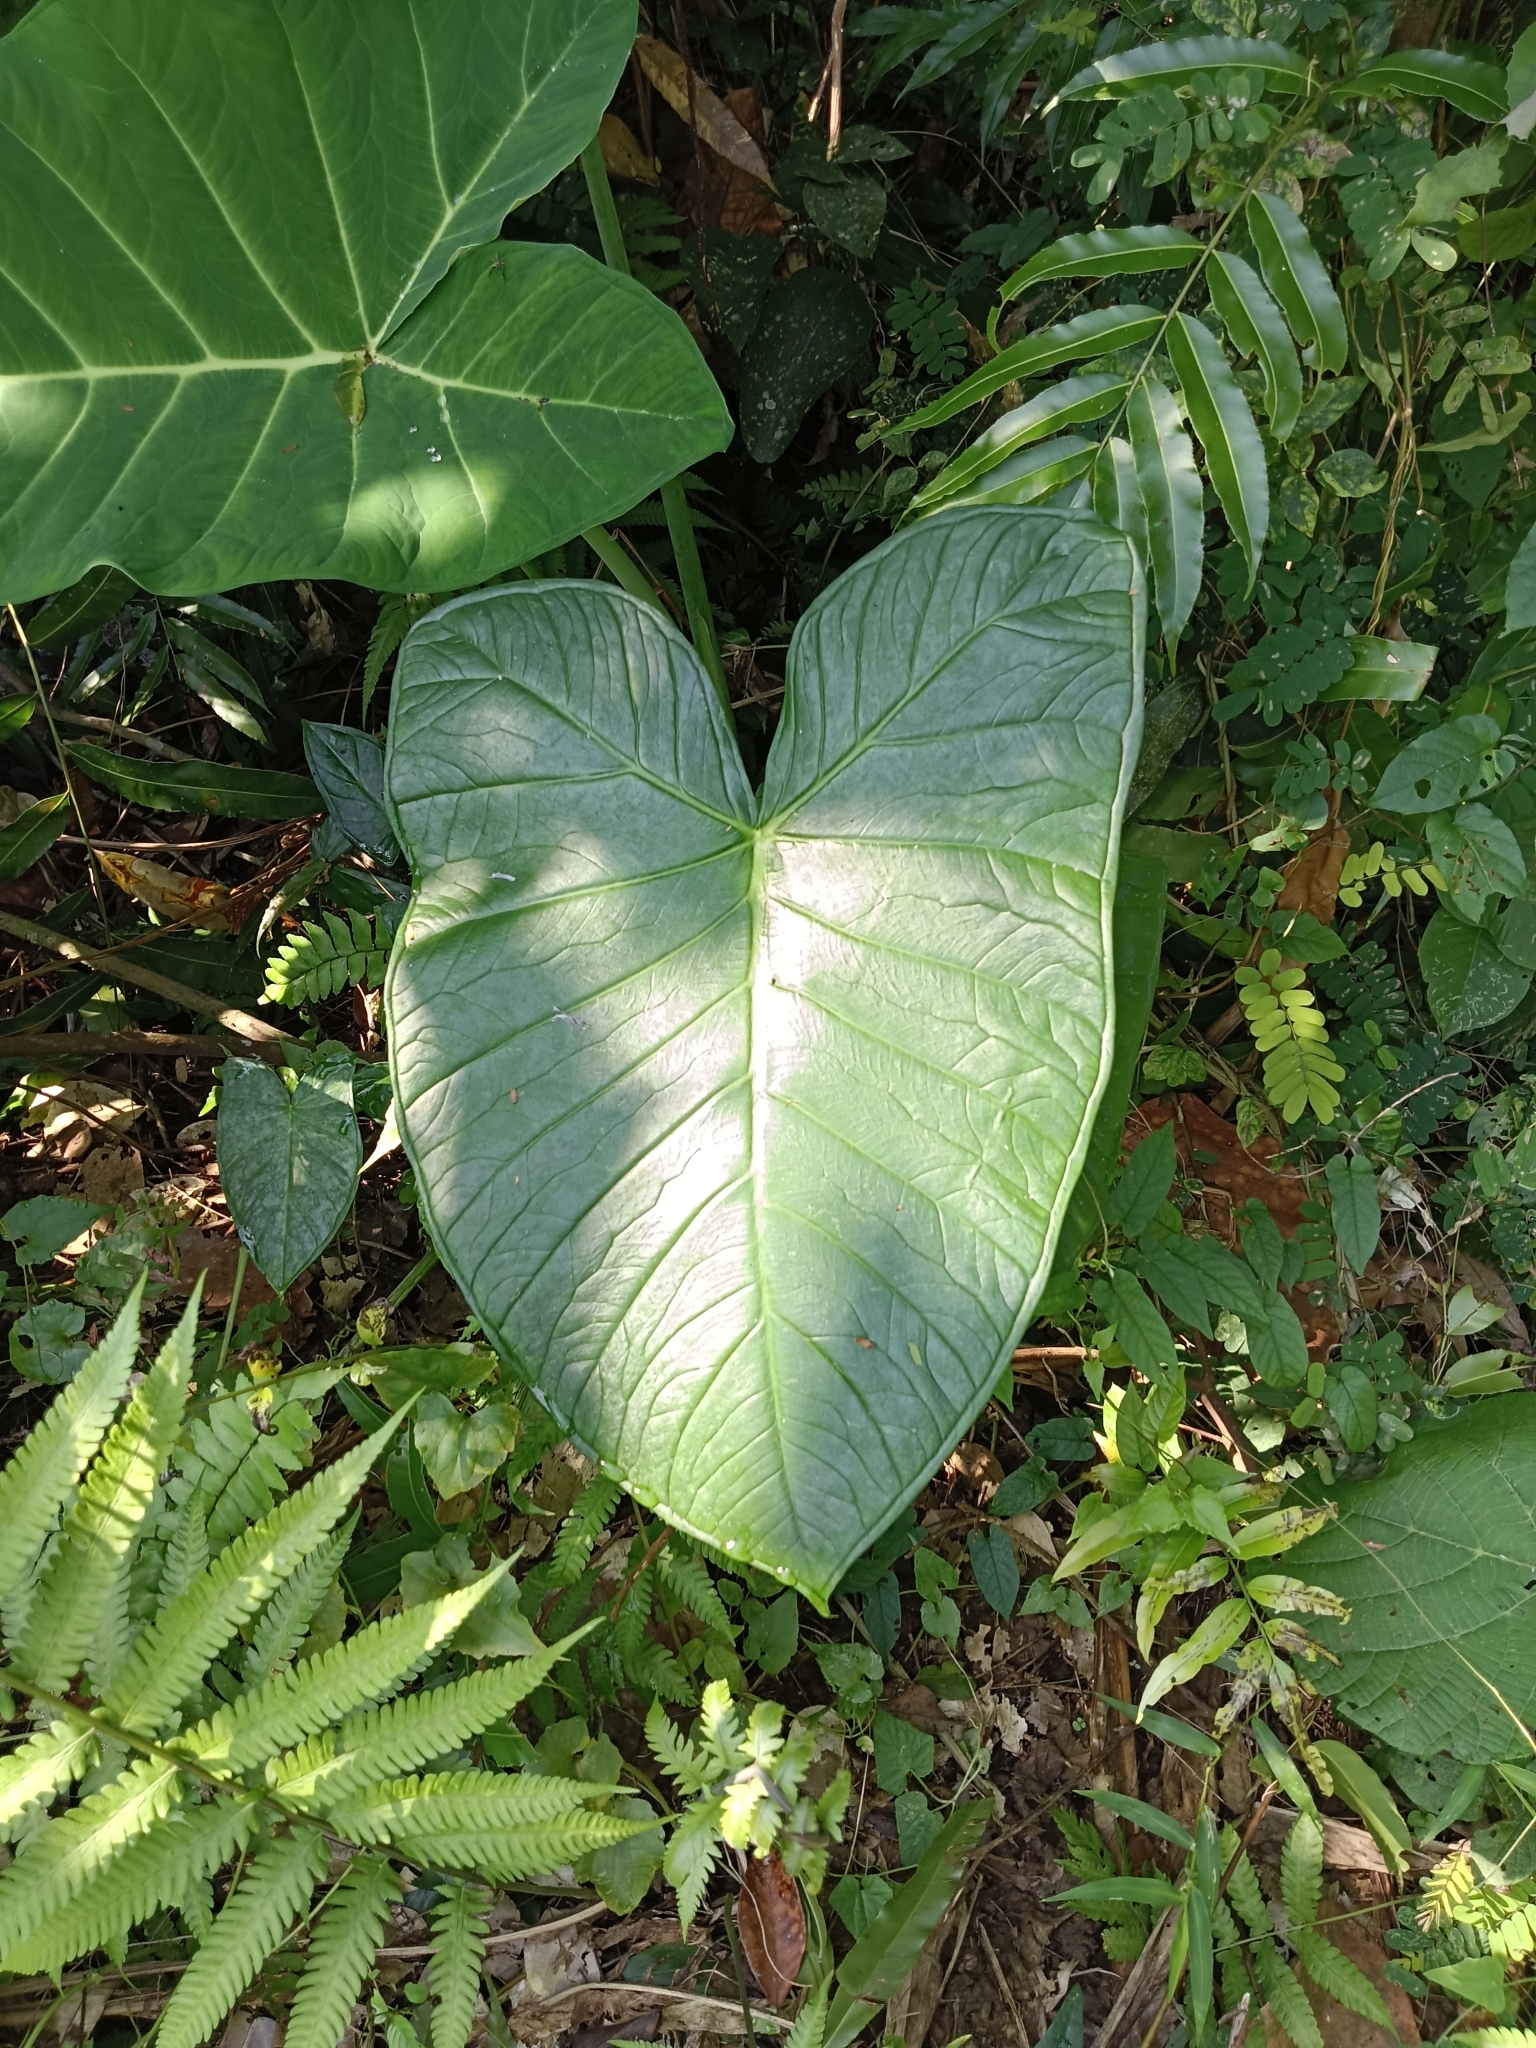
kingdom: Plantae
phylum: Tracheophyta
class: Liliopsida
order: Alismatales
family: Araceae
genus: Xanthosoma
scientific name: Xanthosoma robustum
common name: Capote
